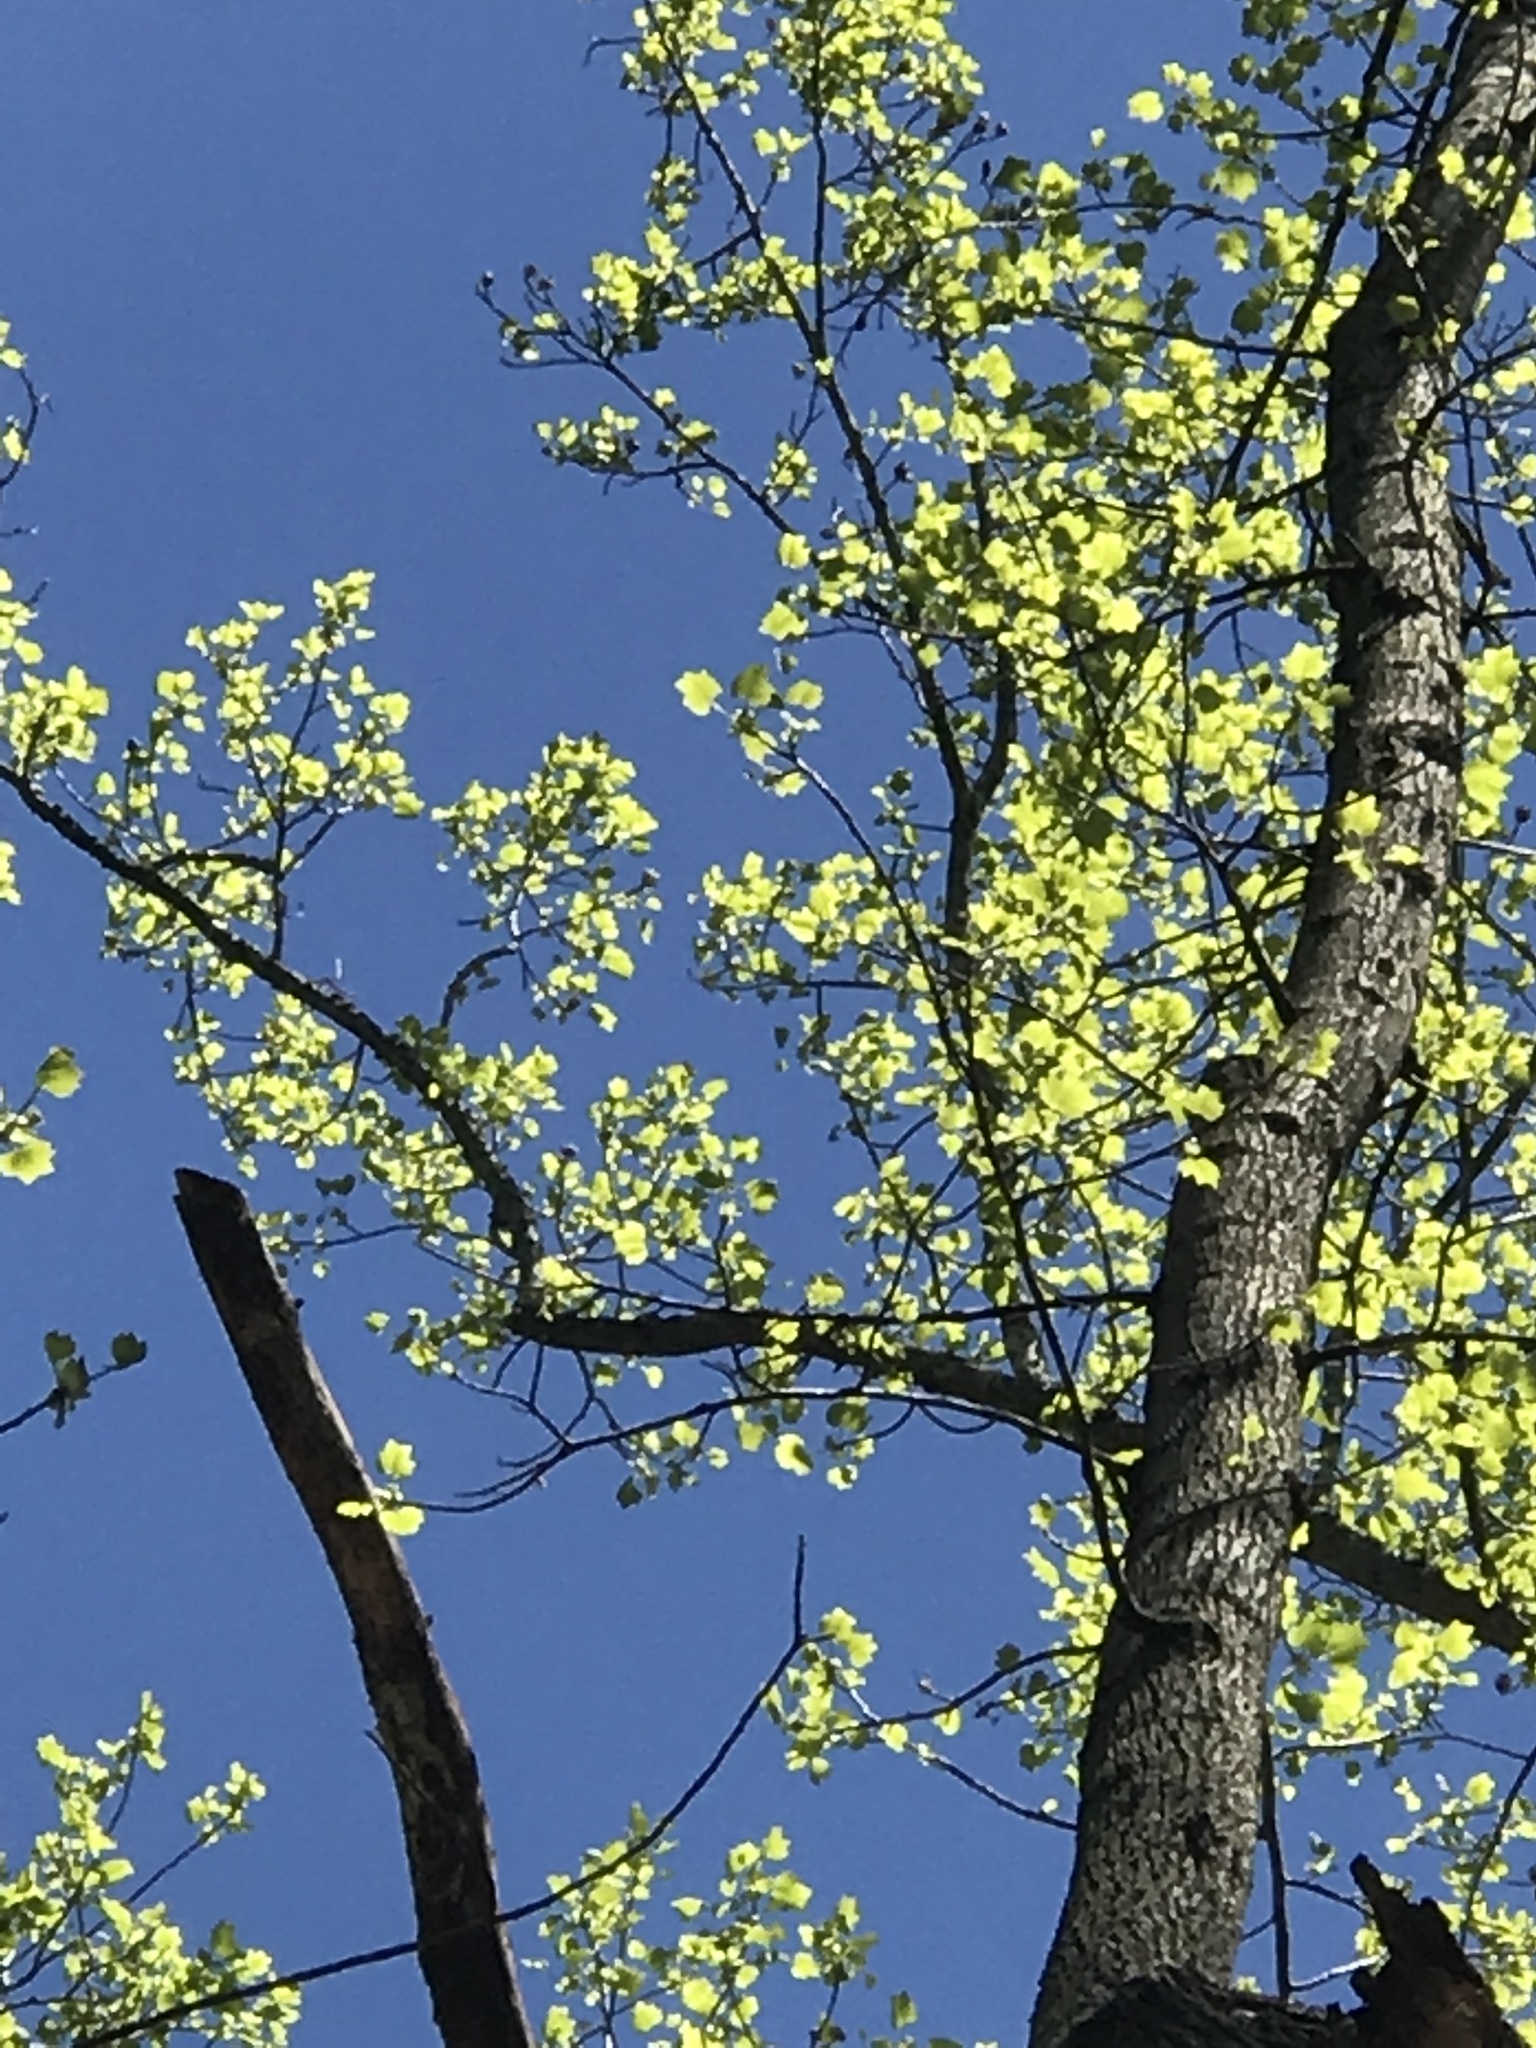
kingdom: Plantae
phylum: Tracheophyta
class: Magnoliopsida
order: Magnoliales
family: Magnoliaceae
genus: Liriodendron
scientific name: Liriodendron tulipifera
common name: Tulip tree
